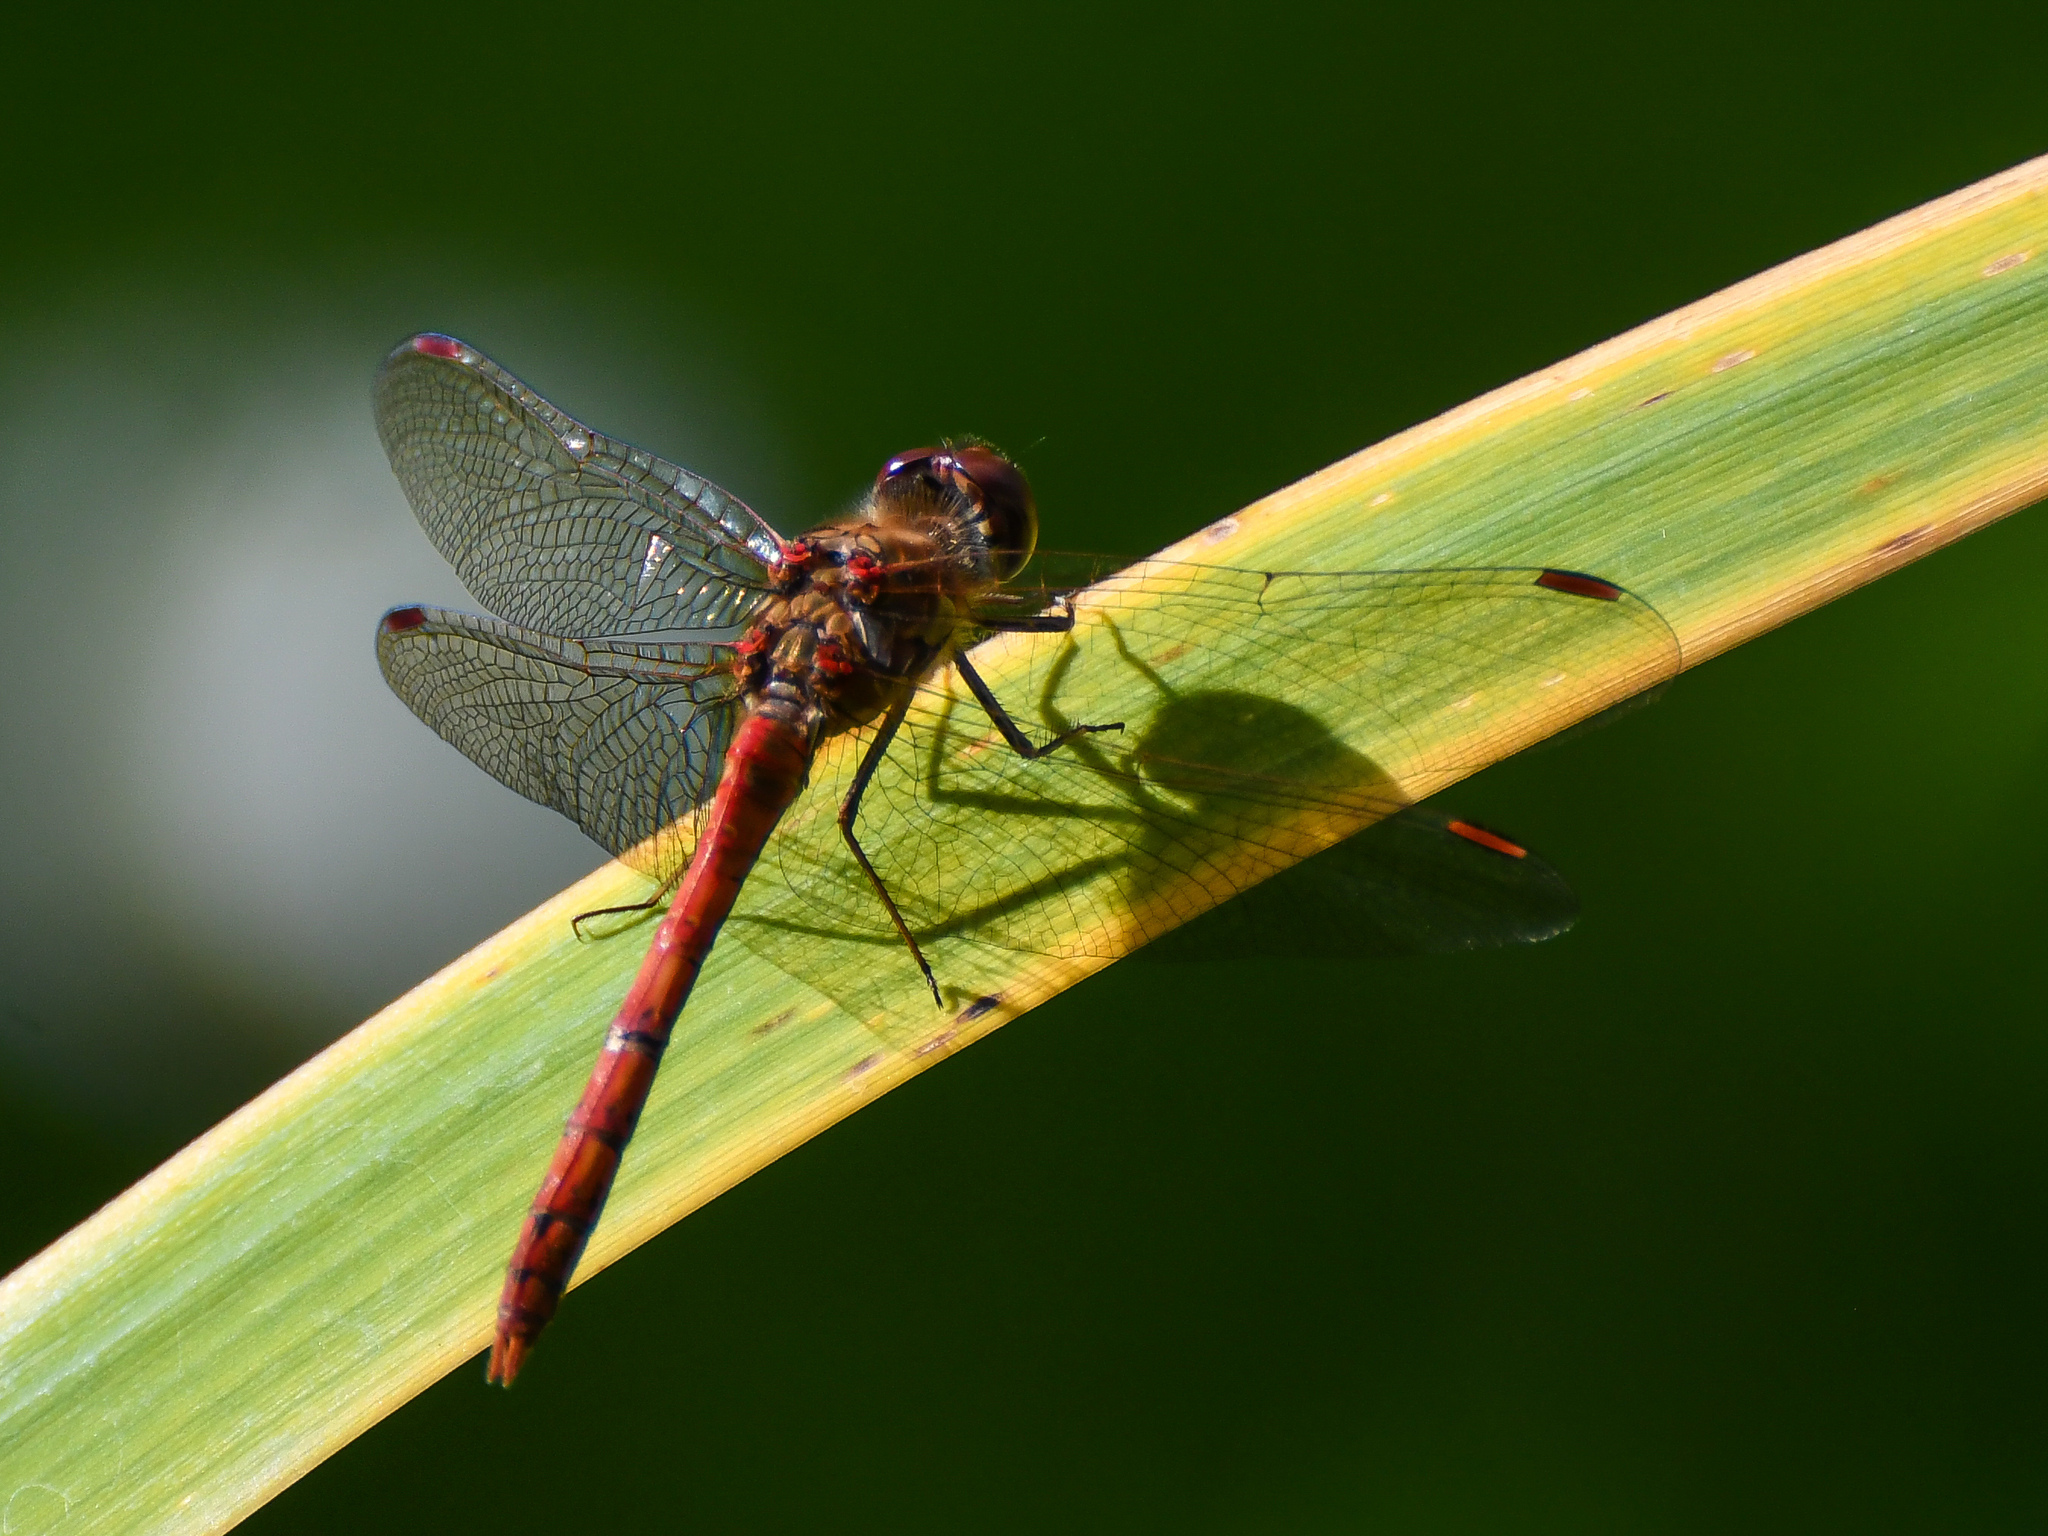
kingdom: Animalia
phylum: Arthropoda
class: Insecta
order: Odonata
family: Libellulidae
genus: Sympetrum
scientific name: Sympetrum striolatum
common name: Common darter
